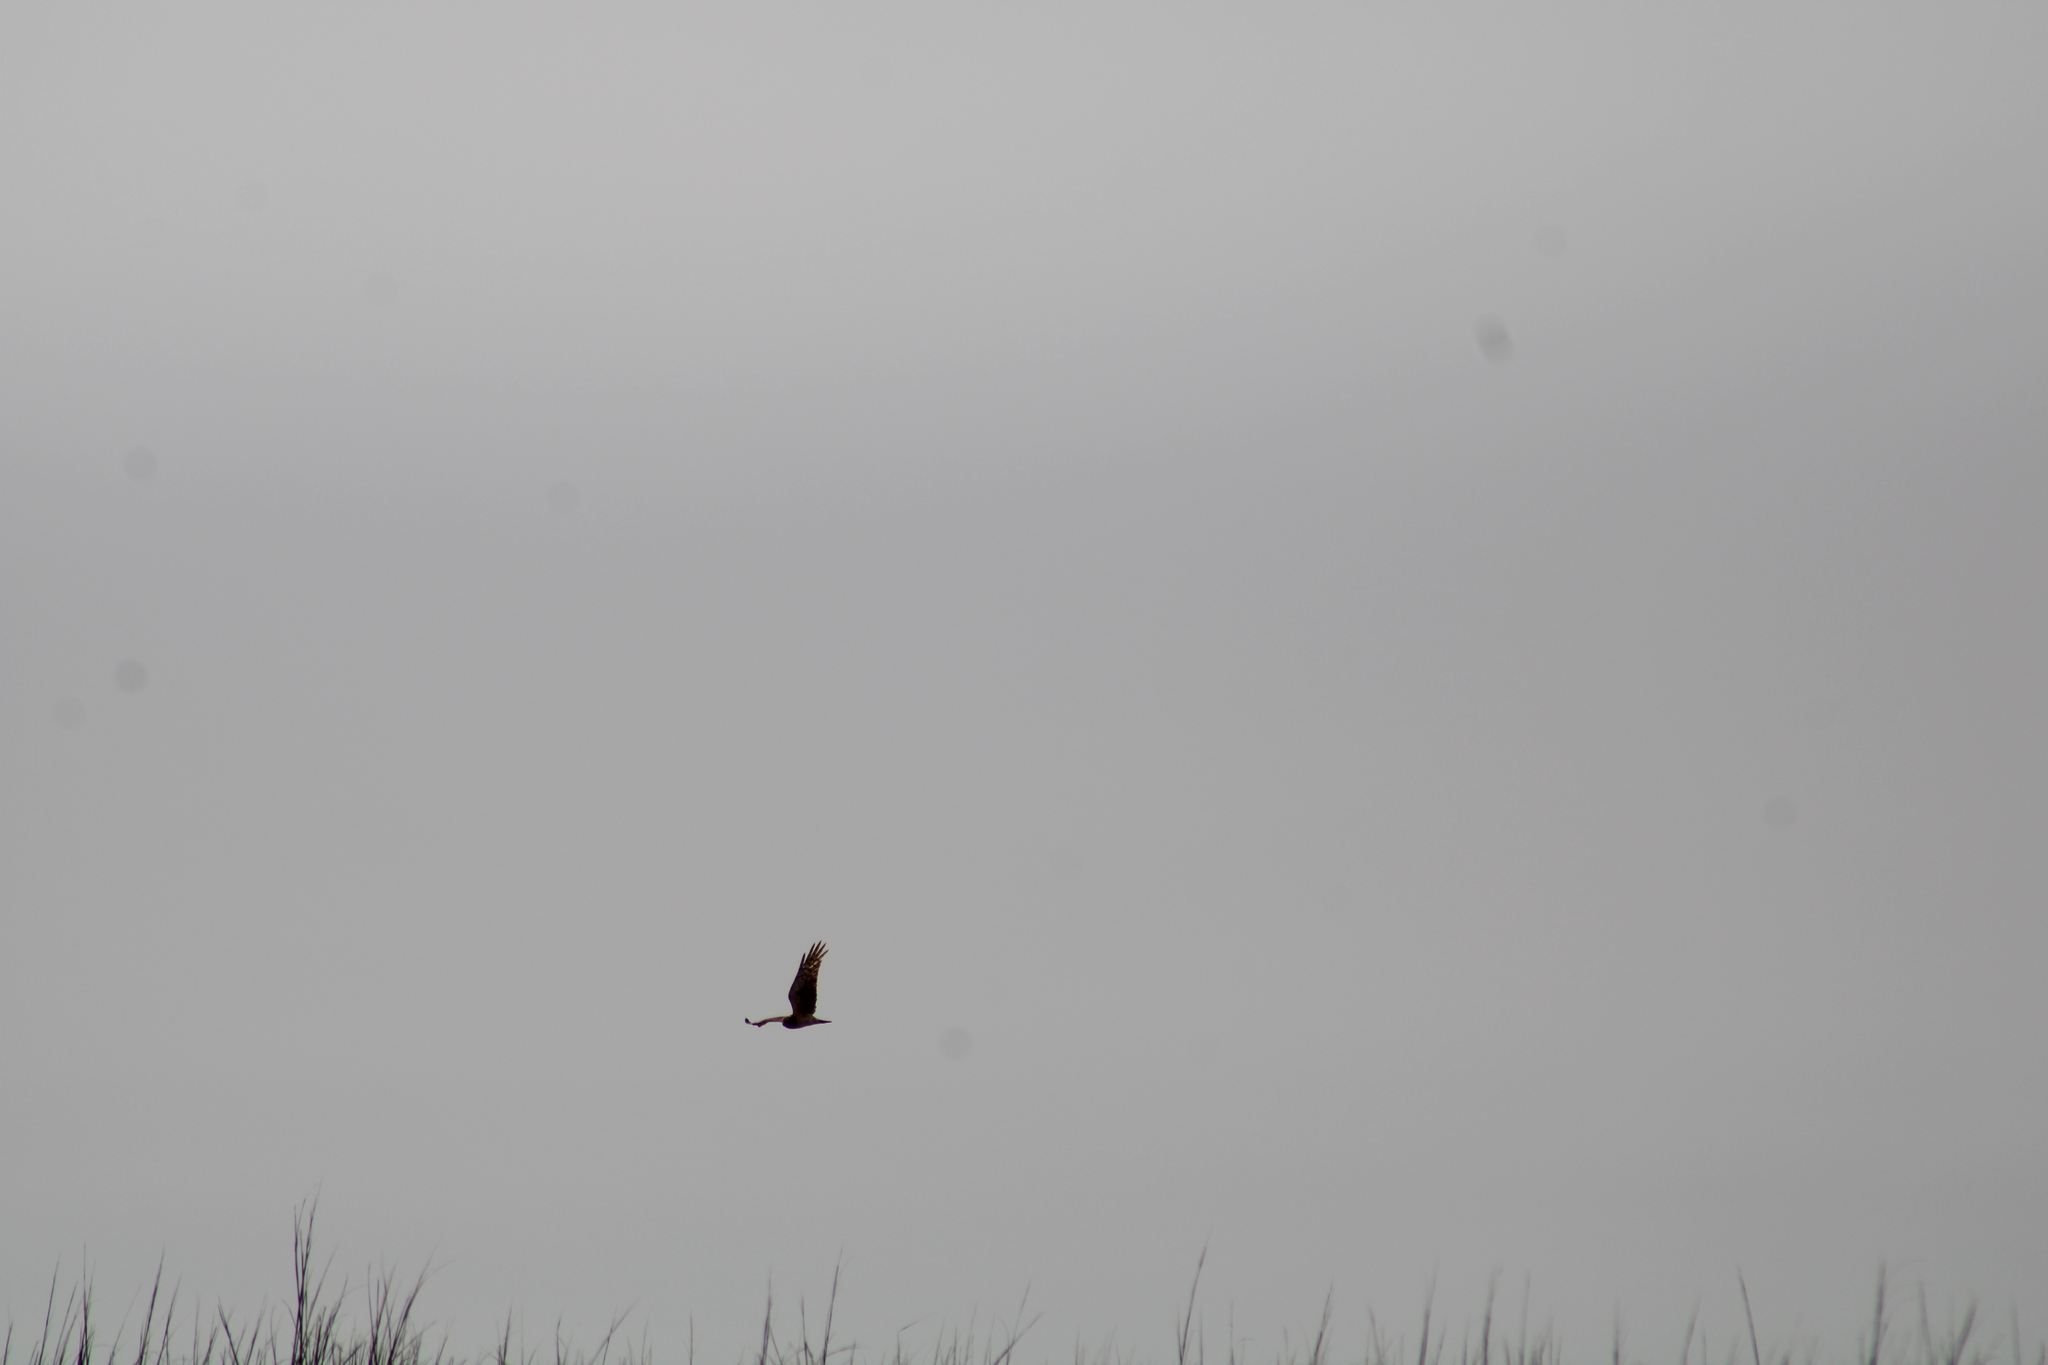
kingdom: Animalia
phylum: Chordata
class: Aves
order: Accipitriformes
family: Accipitridae
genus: Circus
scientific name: Circus cyaneus
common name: Hen harrier
